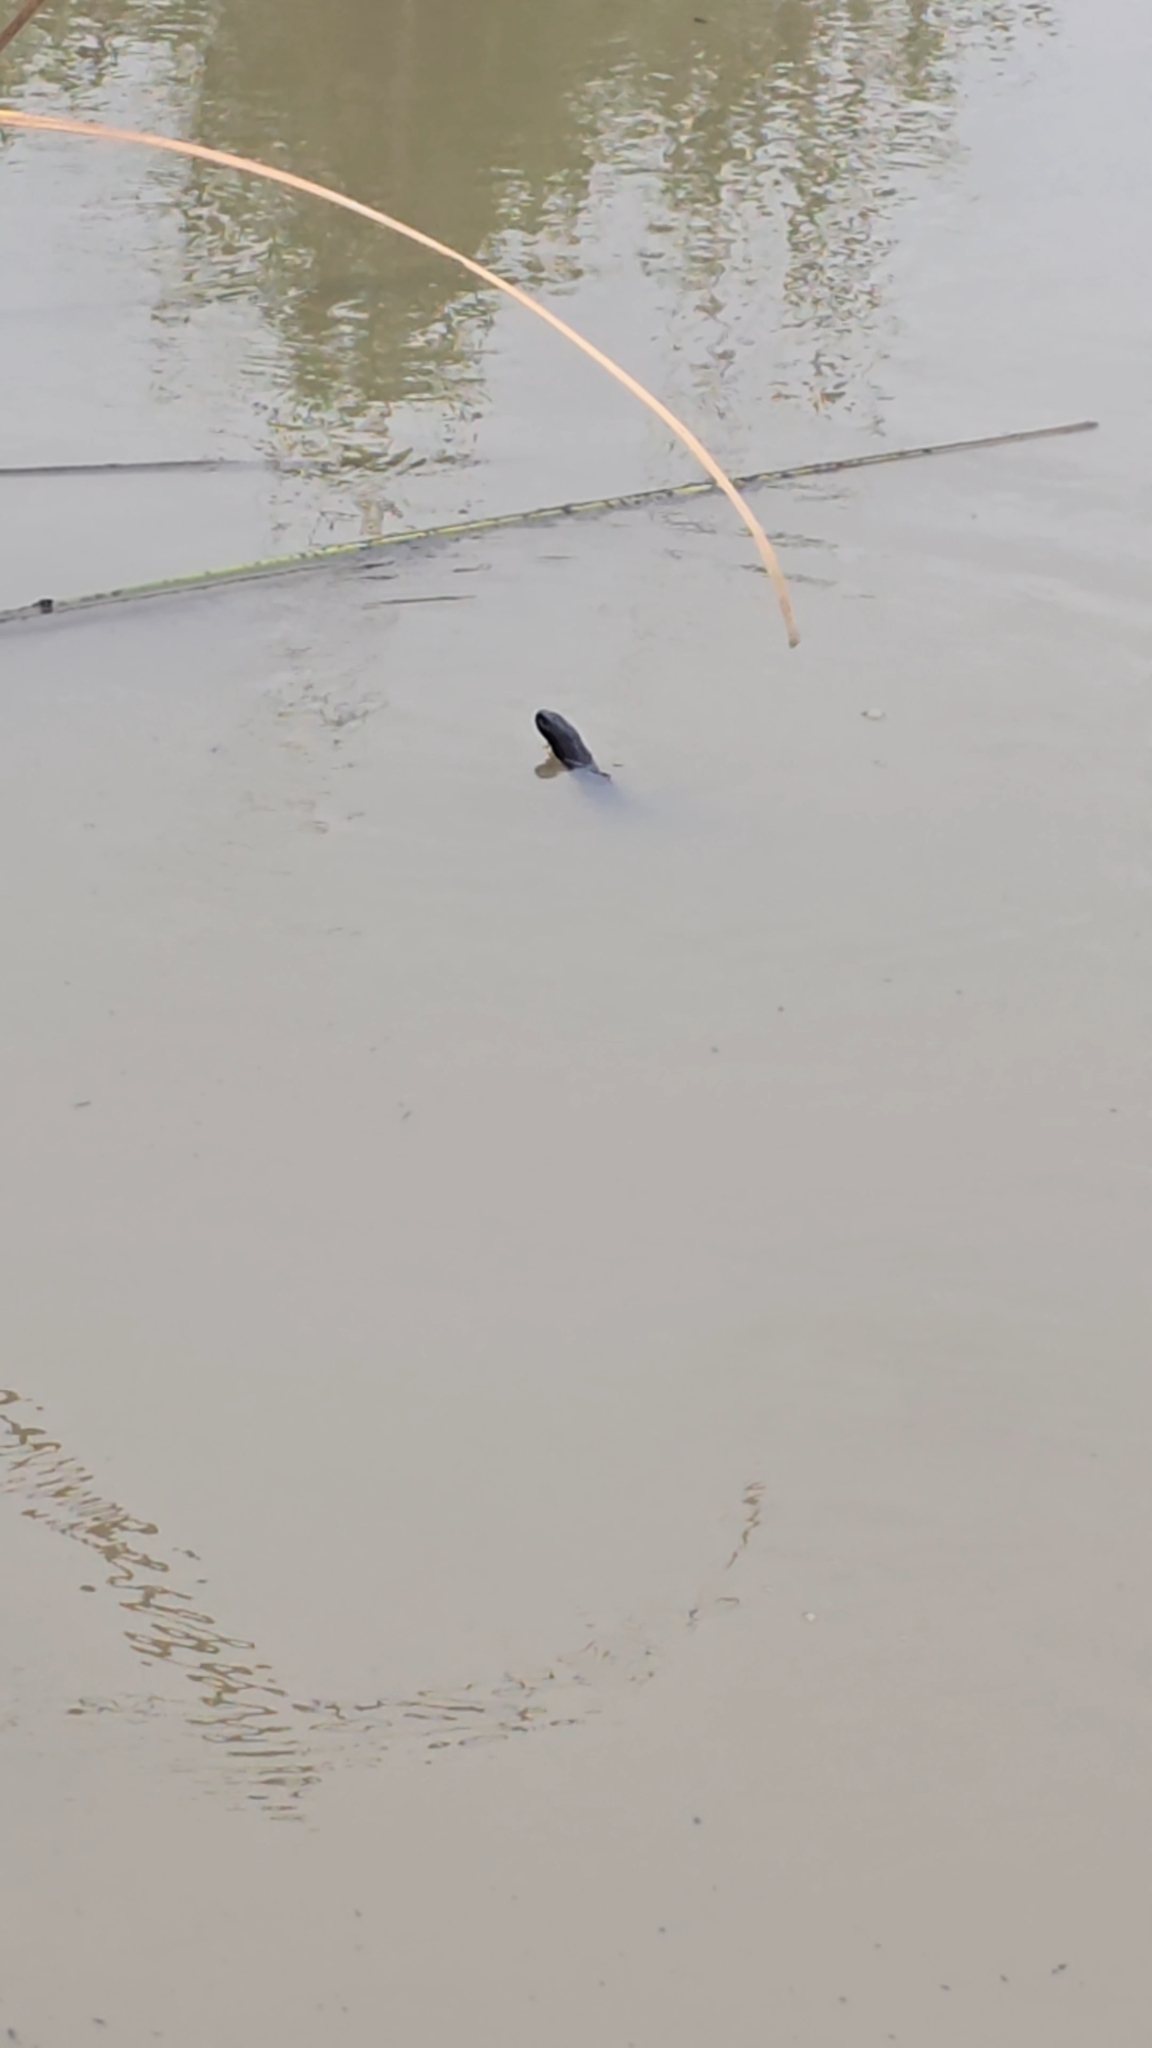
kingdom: Animalia
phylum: Chordata
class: Squamata
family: Elapidae
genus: Pseudechis
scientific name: Pseudechis porphyriacus
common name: Australian black snake
